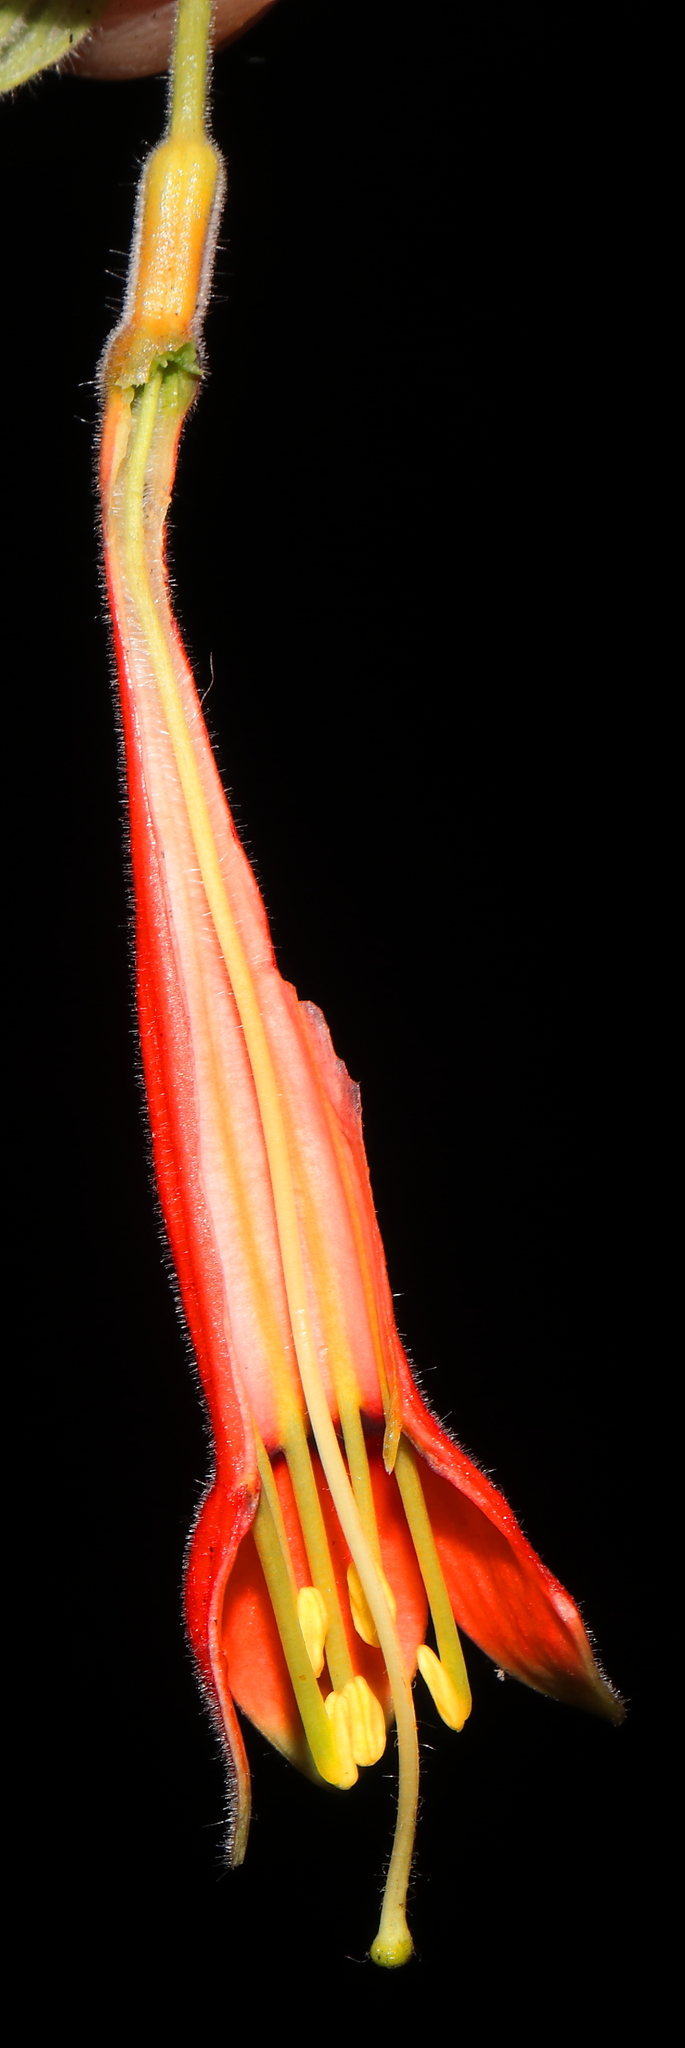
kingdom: Plantae
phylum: Tracheophyta
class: Magnoliopsida
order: Myrtales
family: Onagraceae
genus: Fuchsia
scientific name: Fuchsia apetala
